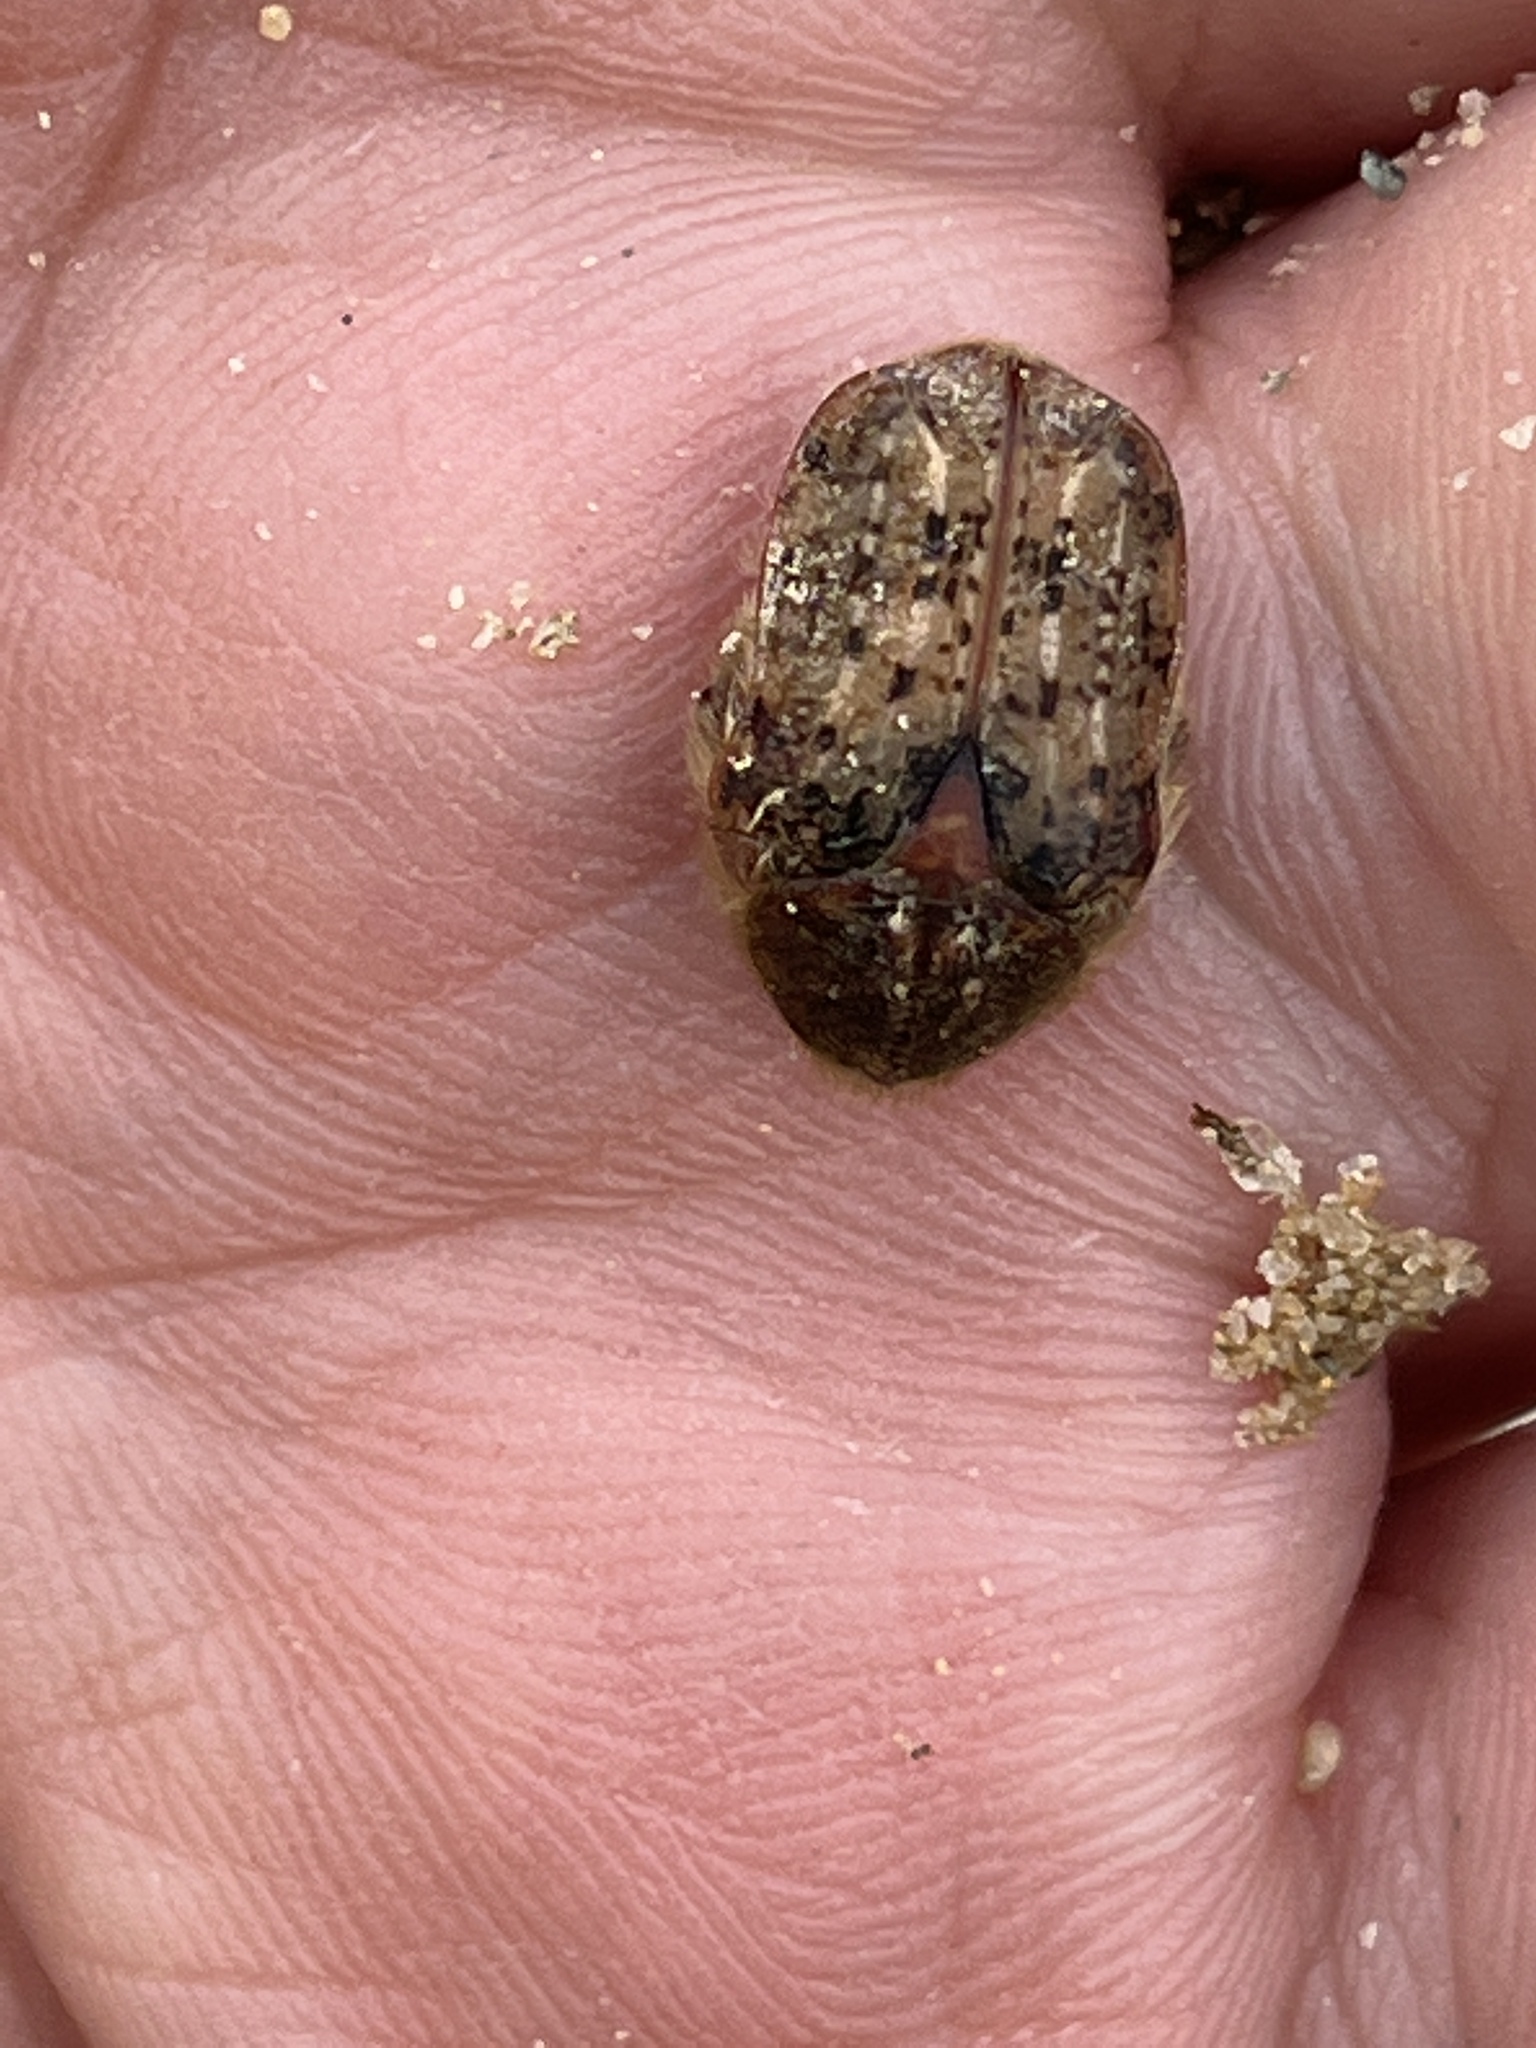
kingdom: Animalia
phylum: Arthropoda
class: Insecta
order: Coleoptera
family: Scarabaeidae
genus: Euphoria
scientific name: Euphoria inda
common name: Bumble flower beetle
